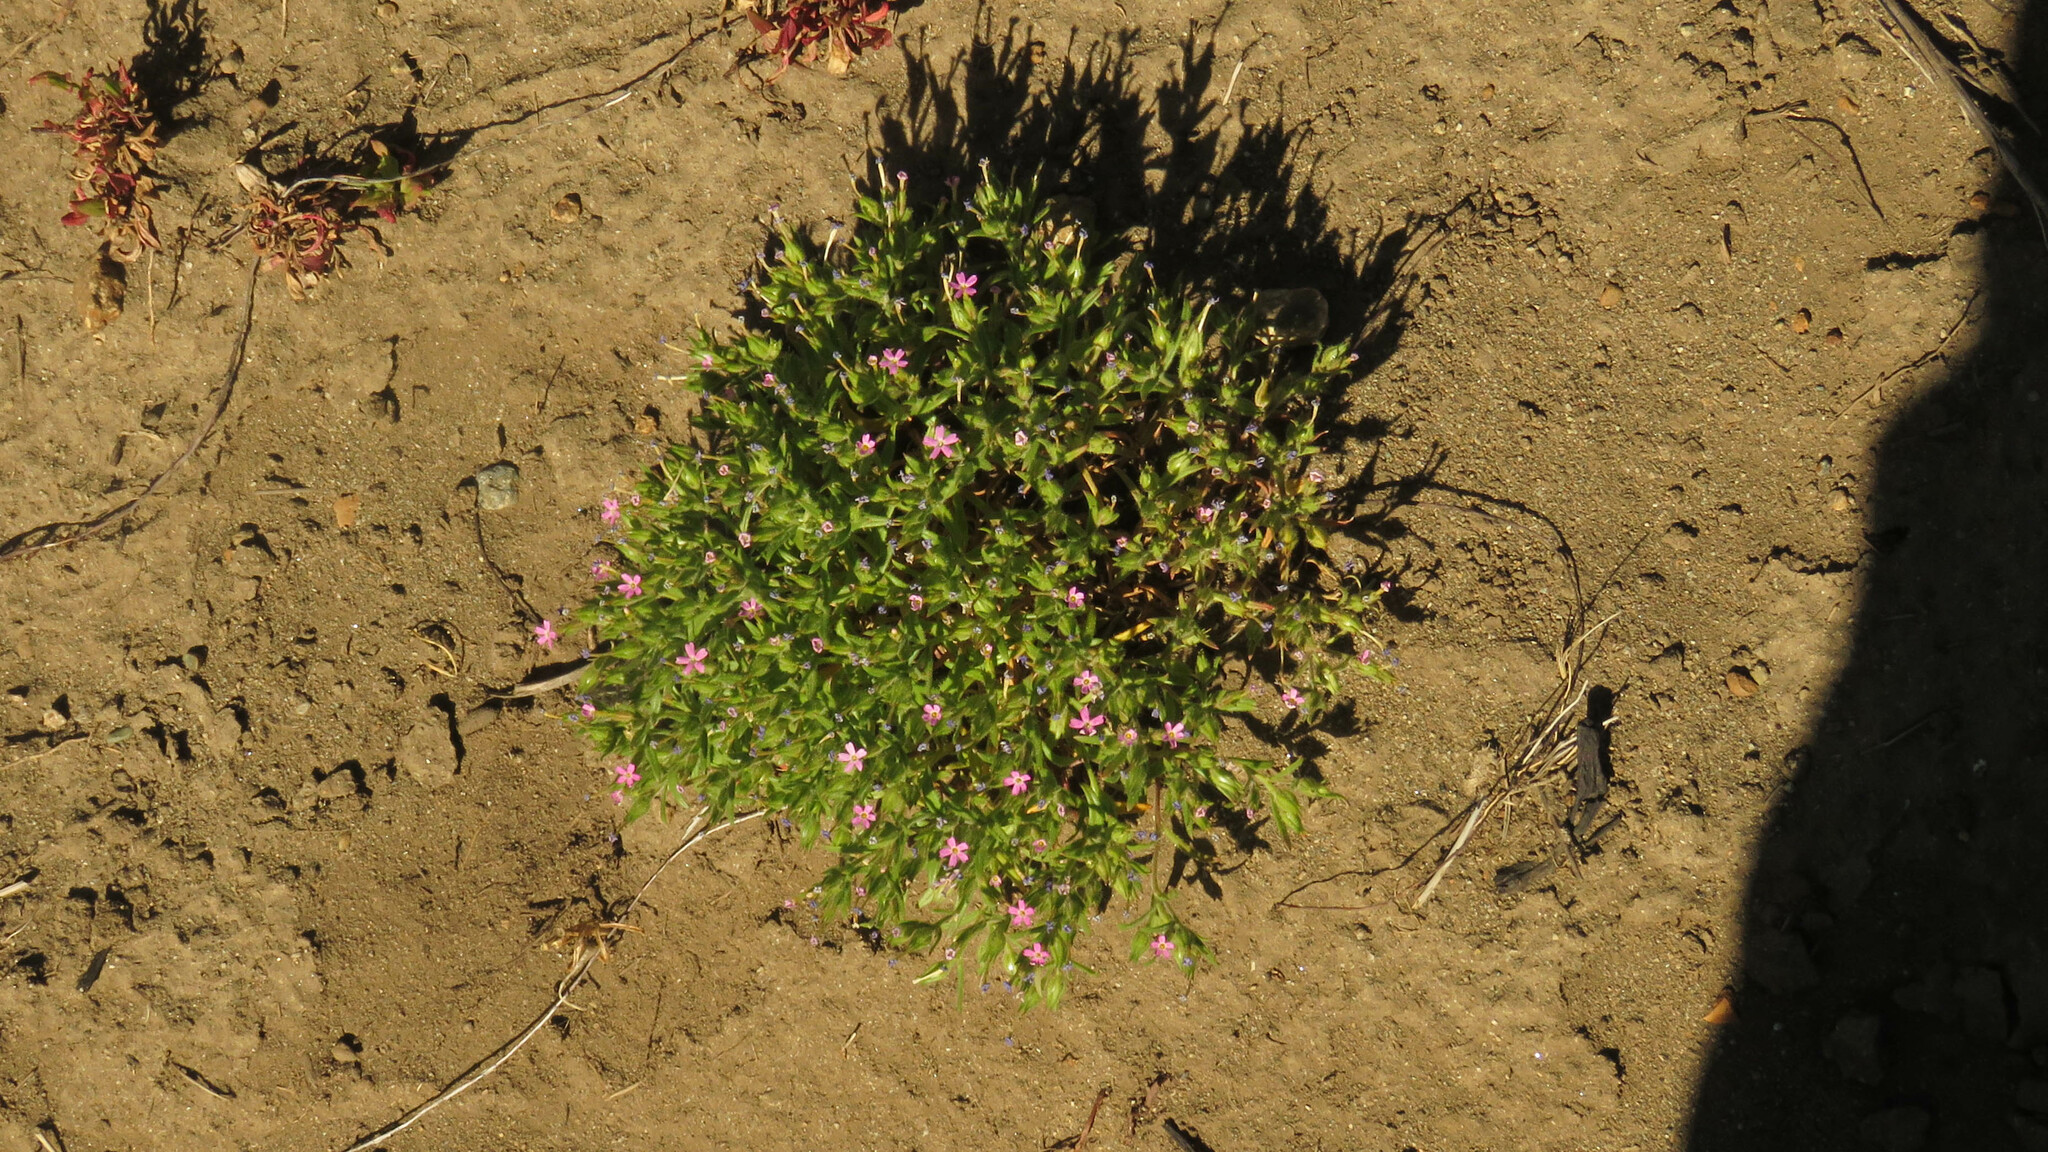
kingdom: Plantae
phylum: Tracheophyta
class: Magnoliopsida
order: Ericales
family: Polemoniaceae
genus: Phlox
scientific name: Phlox gracilis
